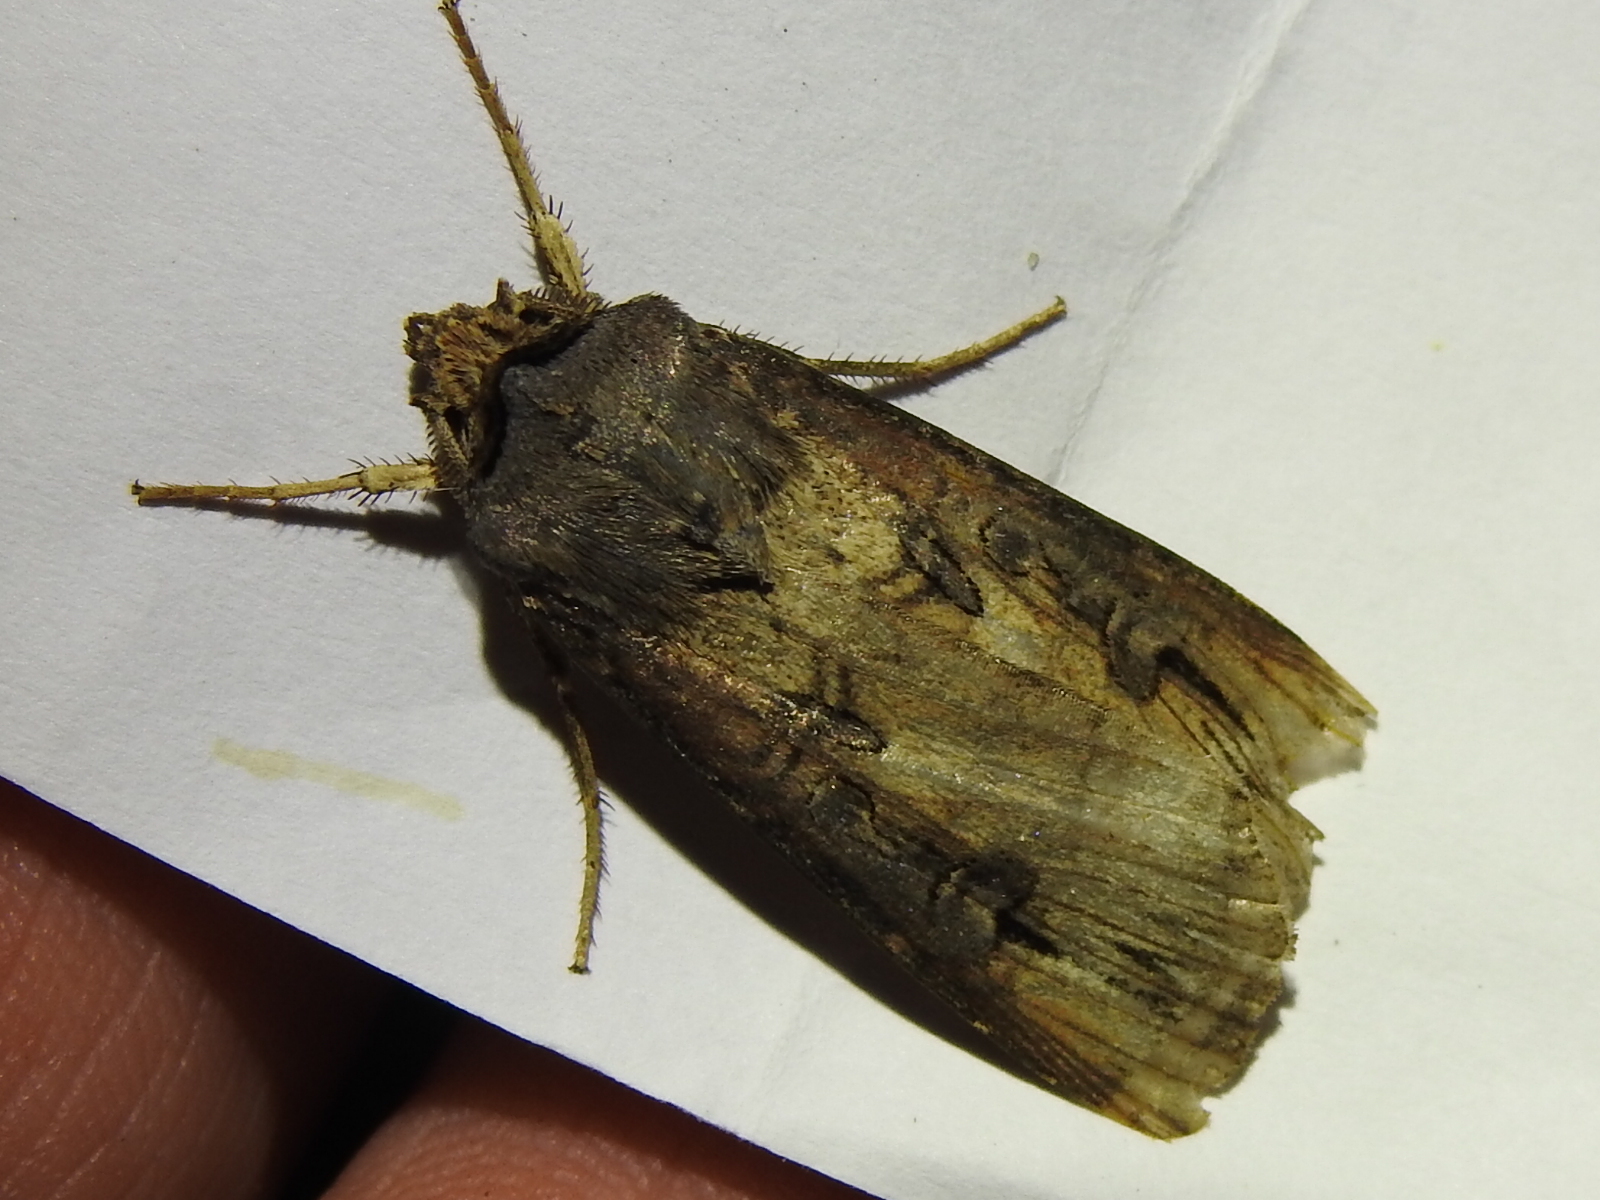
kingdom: Animalia
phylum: Arthropoda
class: Insecta
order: Lepidoptera
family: Noctuidae
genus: Agrotis
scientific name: Agrotis ipsilon
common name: Dark sword-grass
